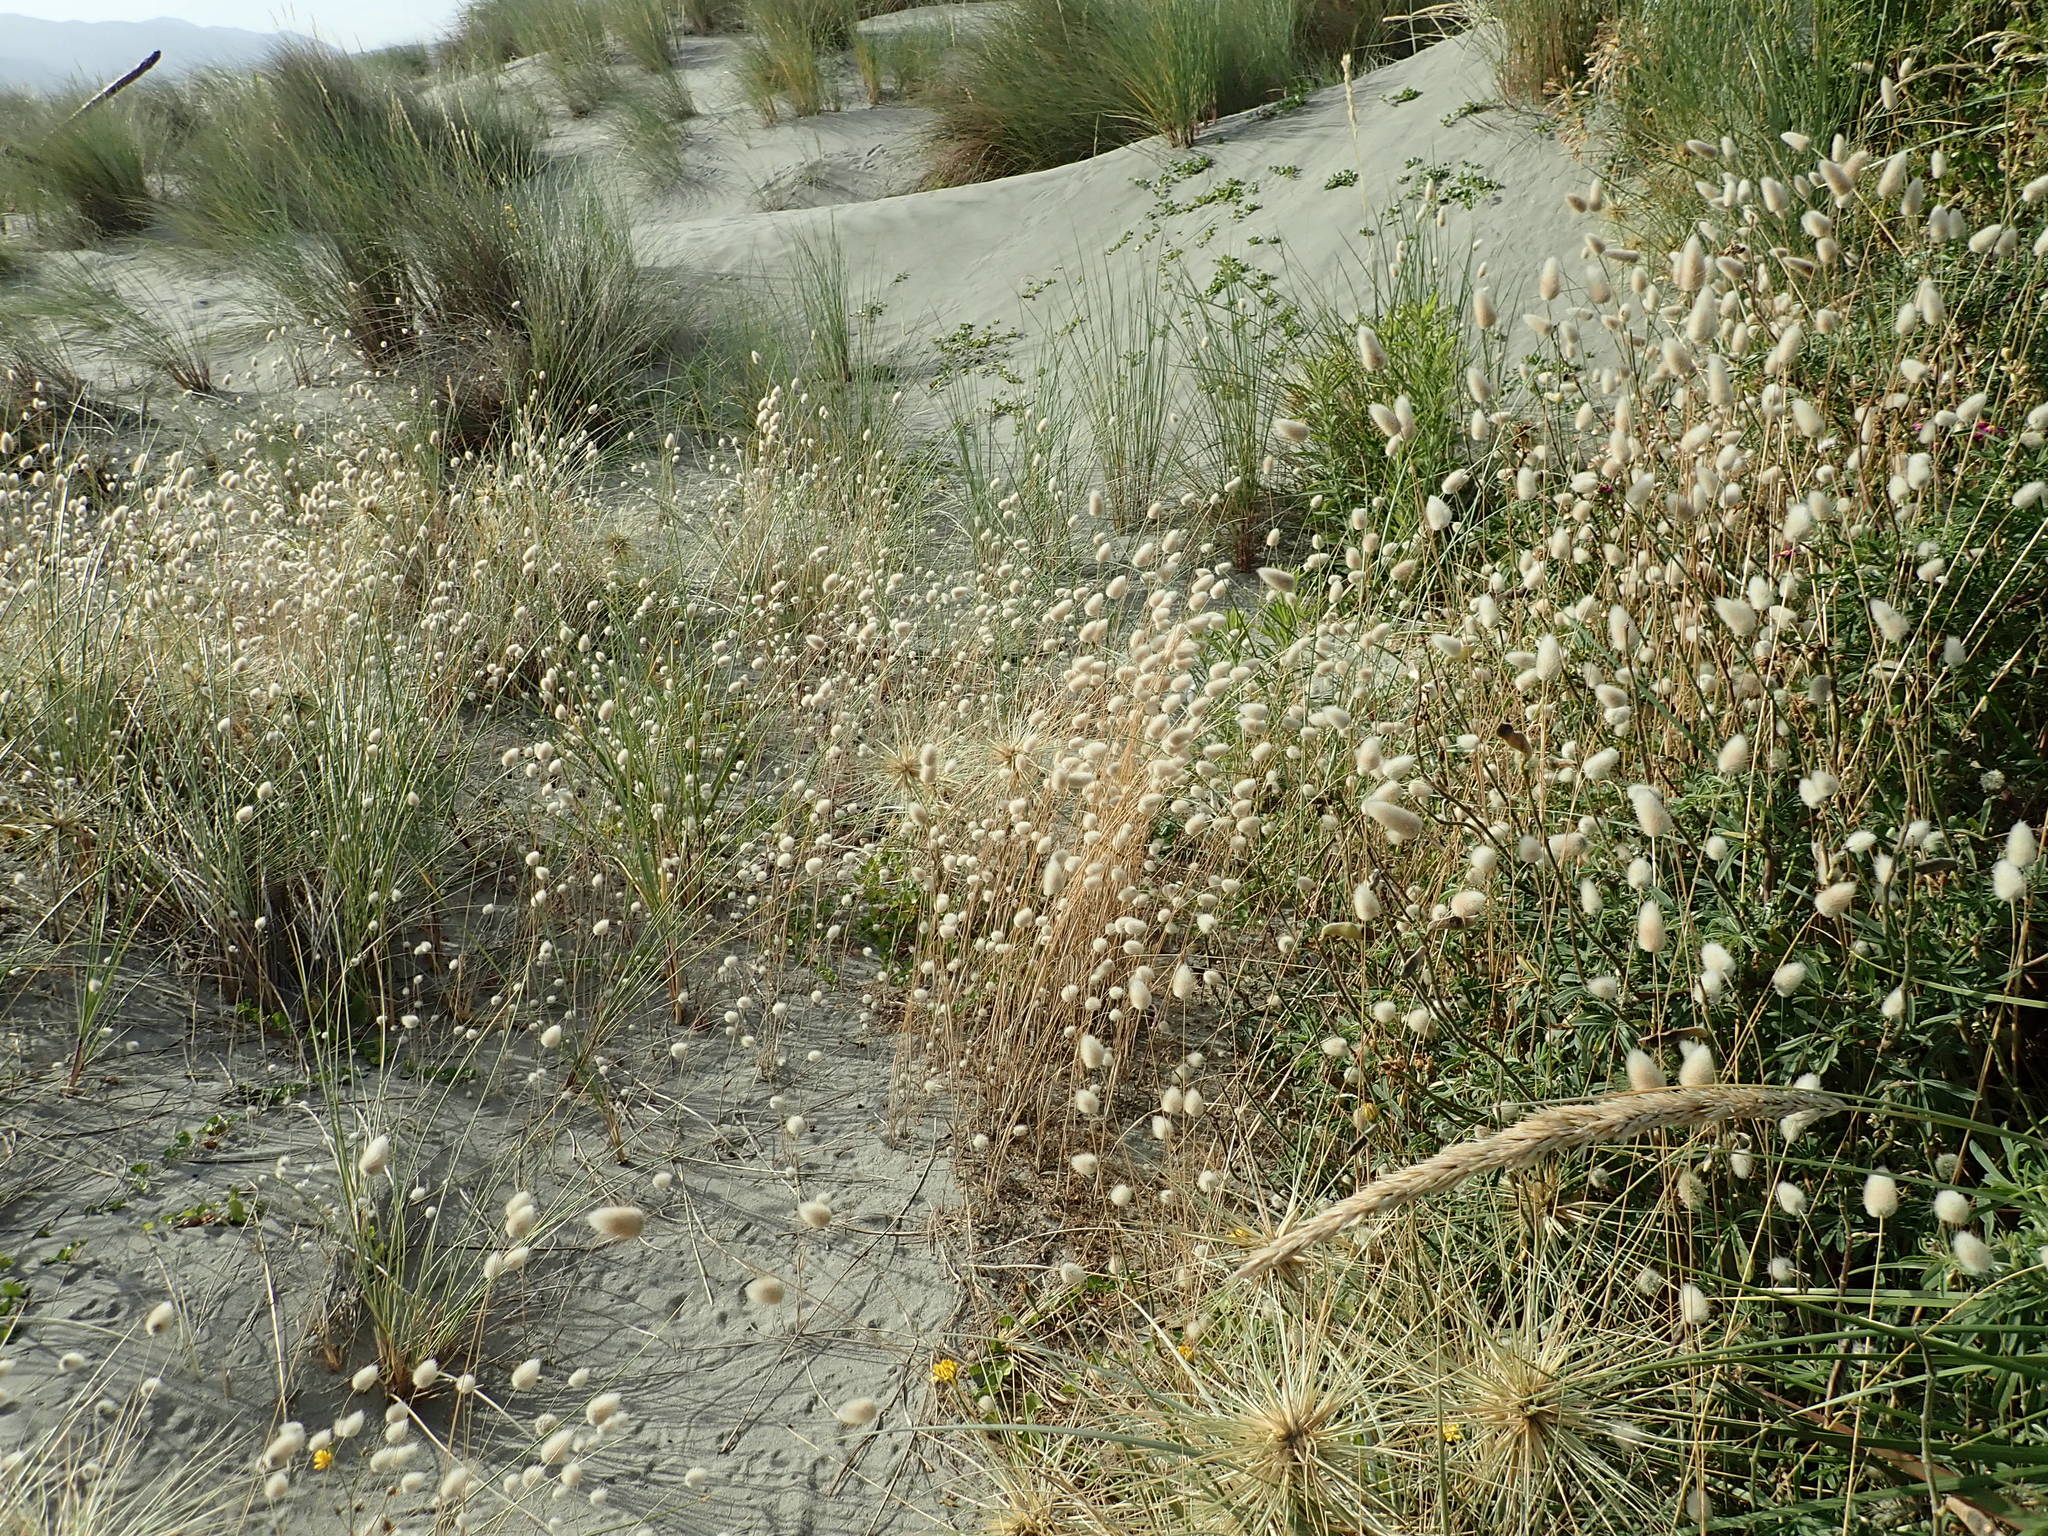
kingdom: Plantae
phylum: Tracheophyta
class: Liliopsida
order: Poales
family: Poaceae
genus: Lagurus
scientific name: Lagurus ovatus
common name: Hare's-tail
